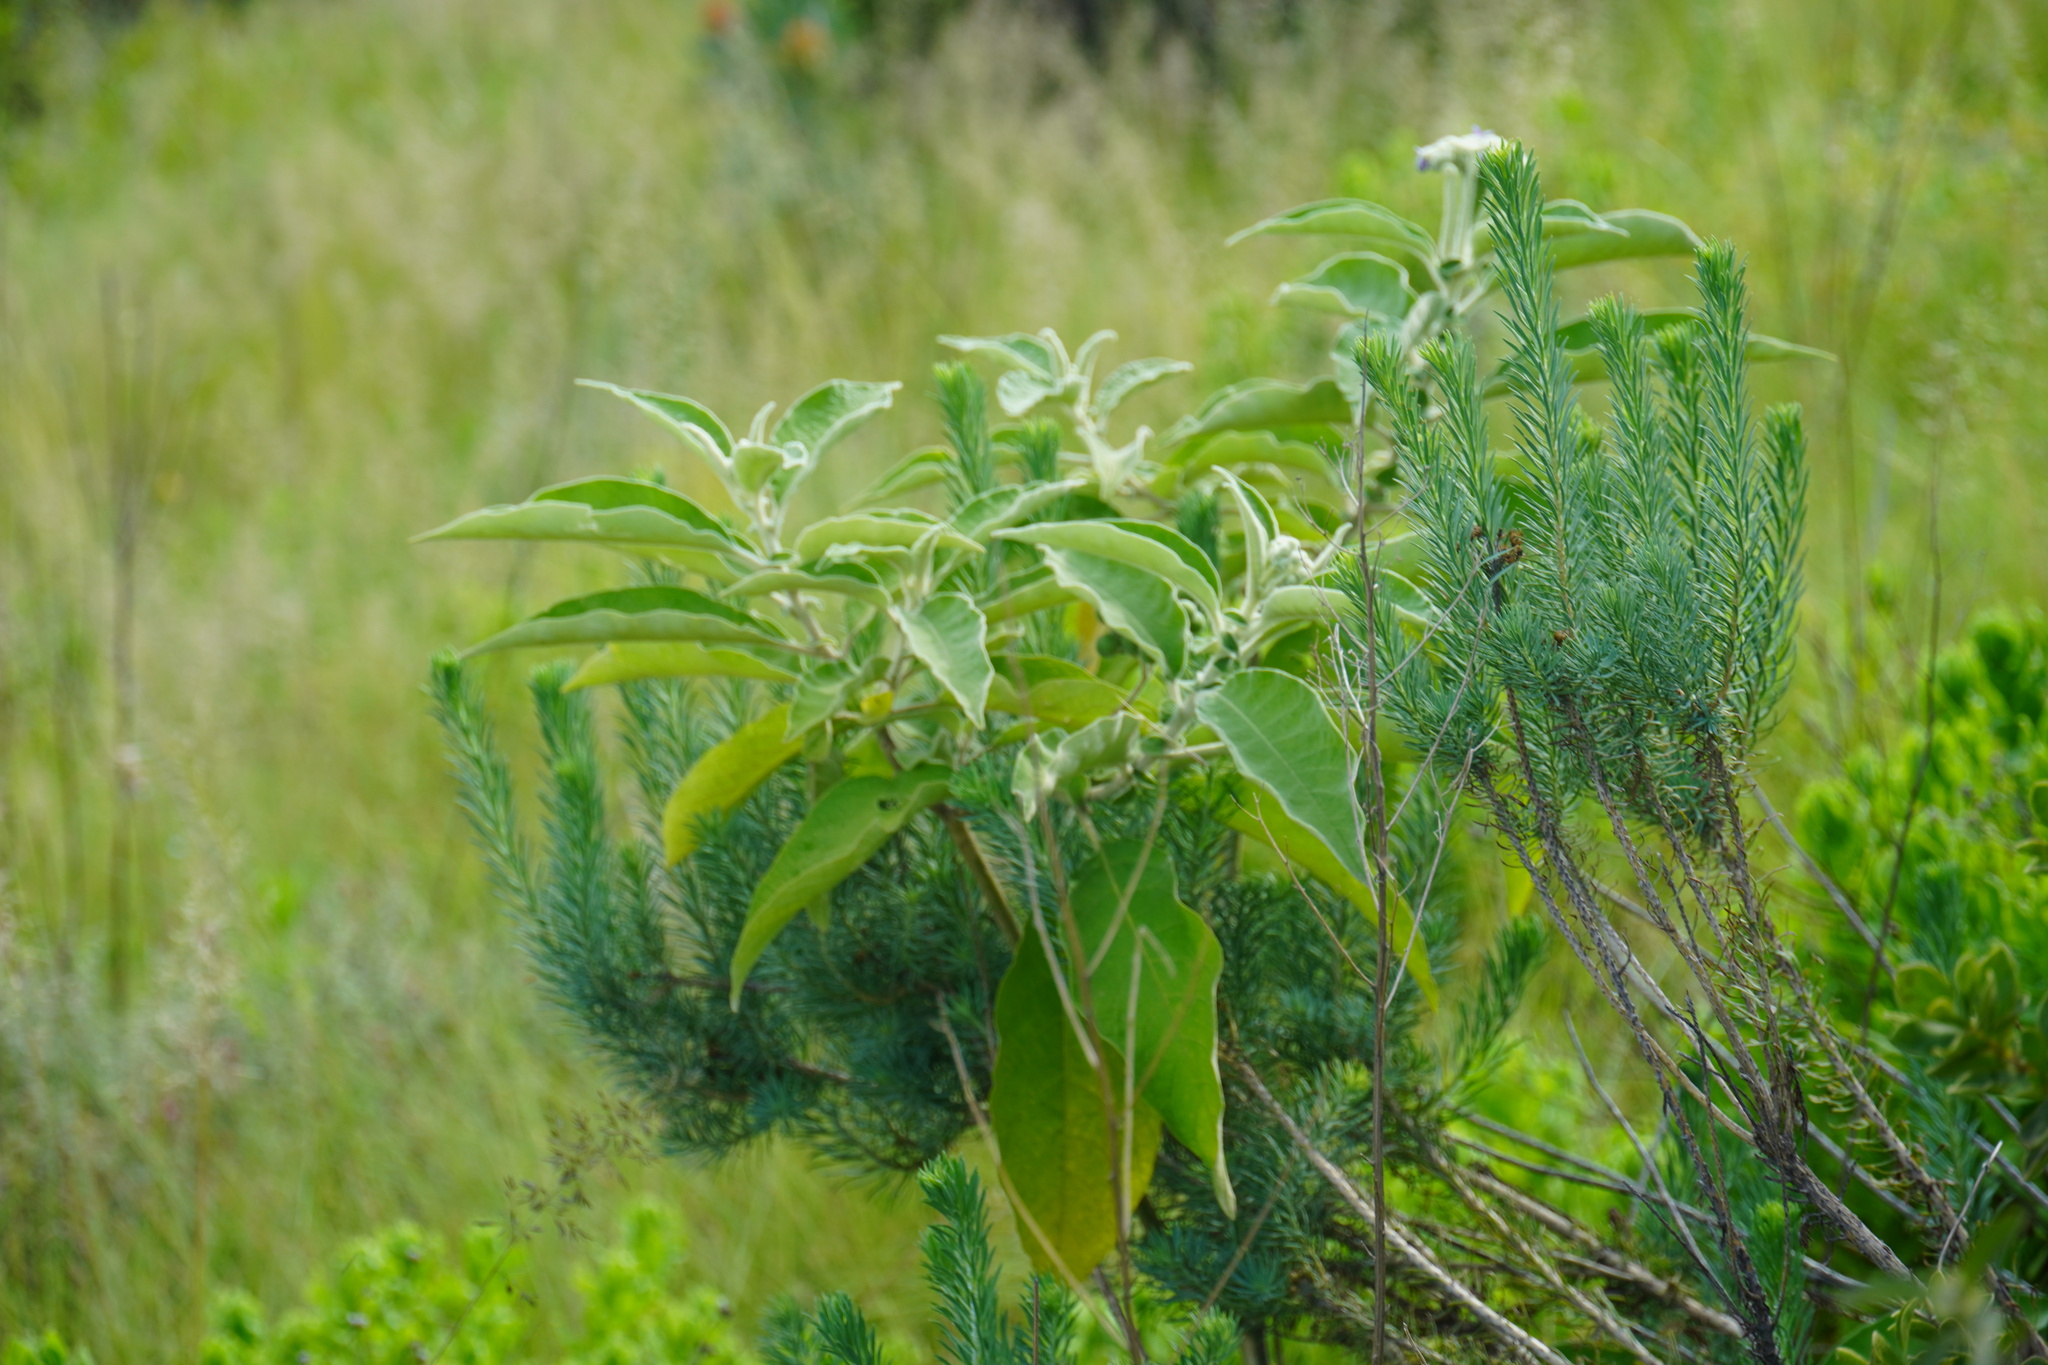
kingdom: Plantae
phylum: Tracheophyta
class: Magnoliopsida
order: Solanales
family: Solanaceae
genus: Solanum
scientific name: Solanum mauritianum
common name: Earleaf nightshade
